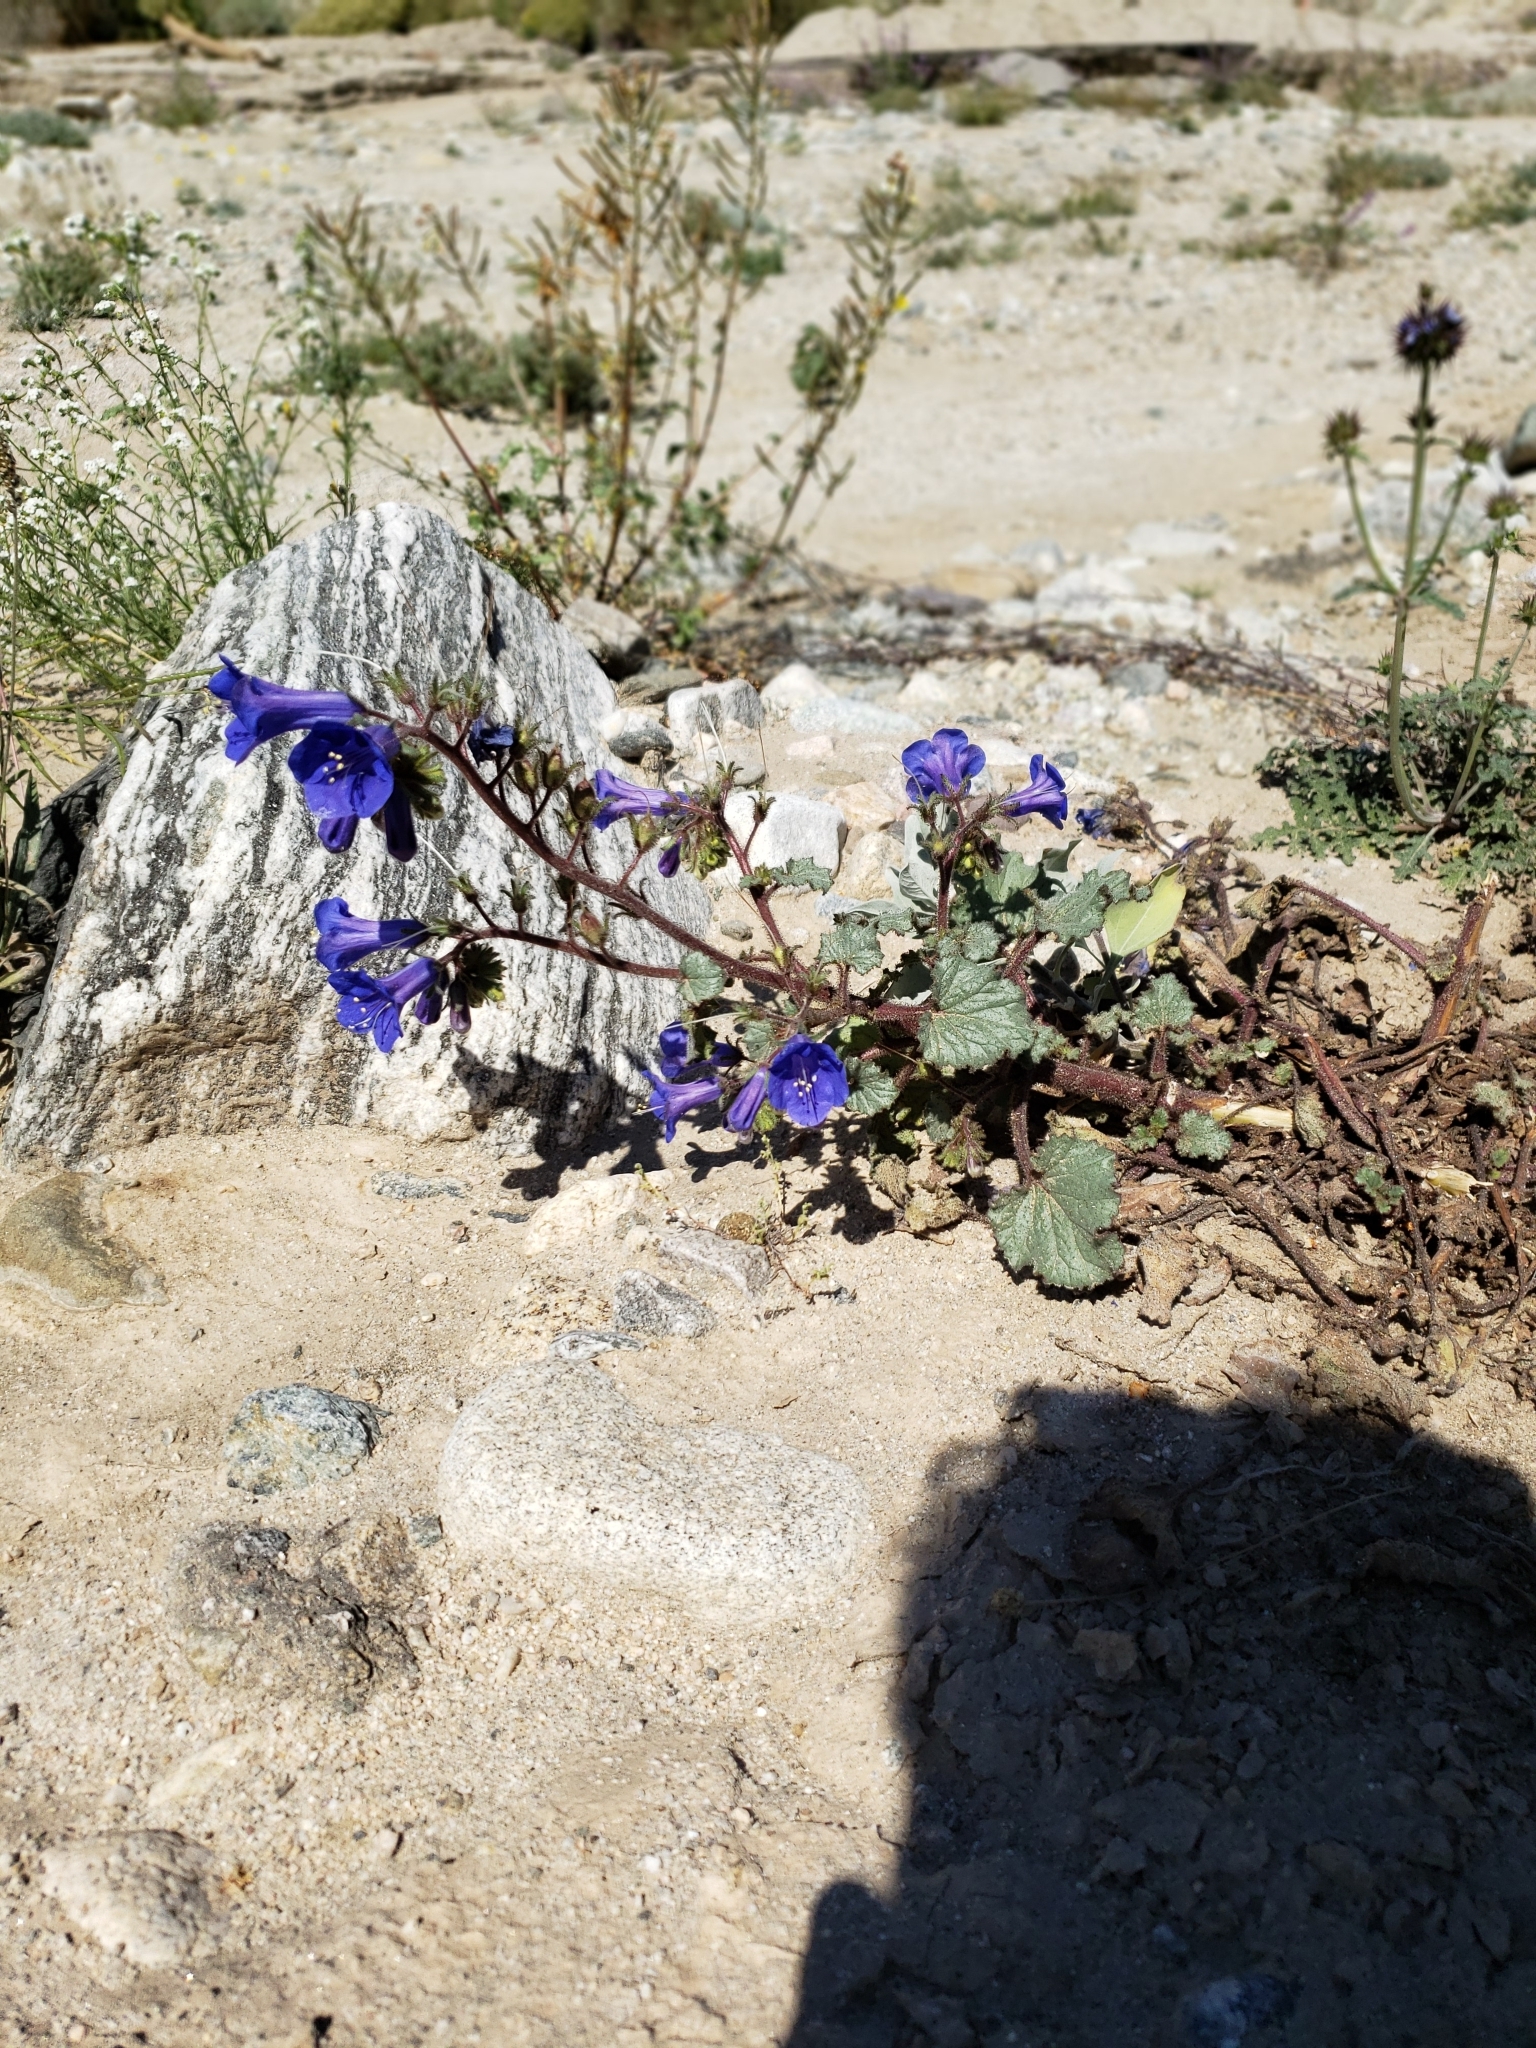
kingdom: Plantae
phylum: Tracheophyta
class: Magnoliopsida
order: Boraginales
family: Hydrophyllaceae
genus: Phacelia
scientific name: Phacelia campanularia
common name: California bluebell
